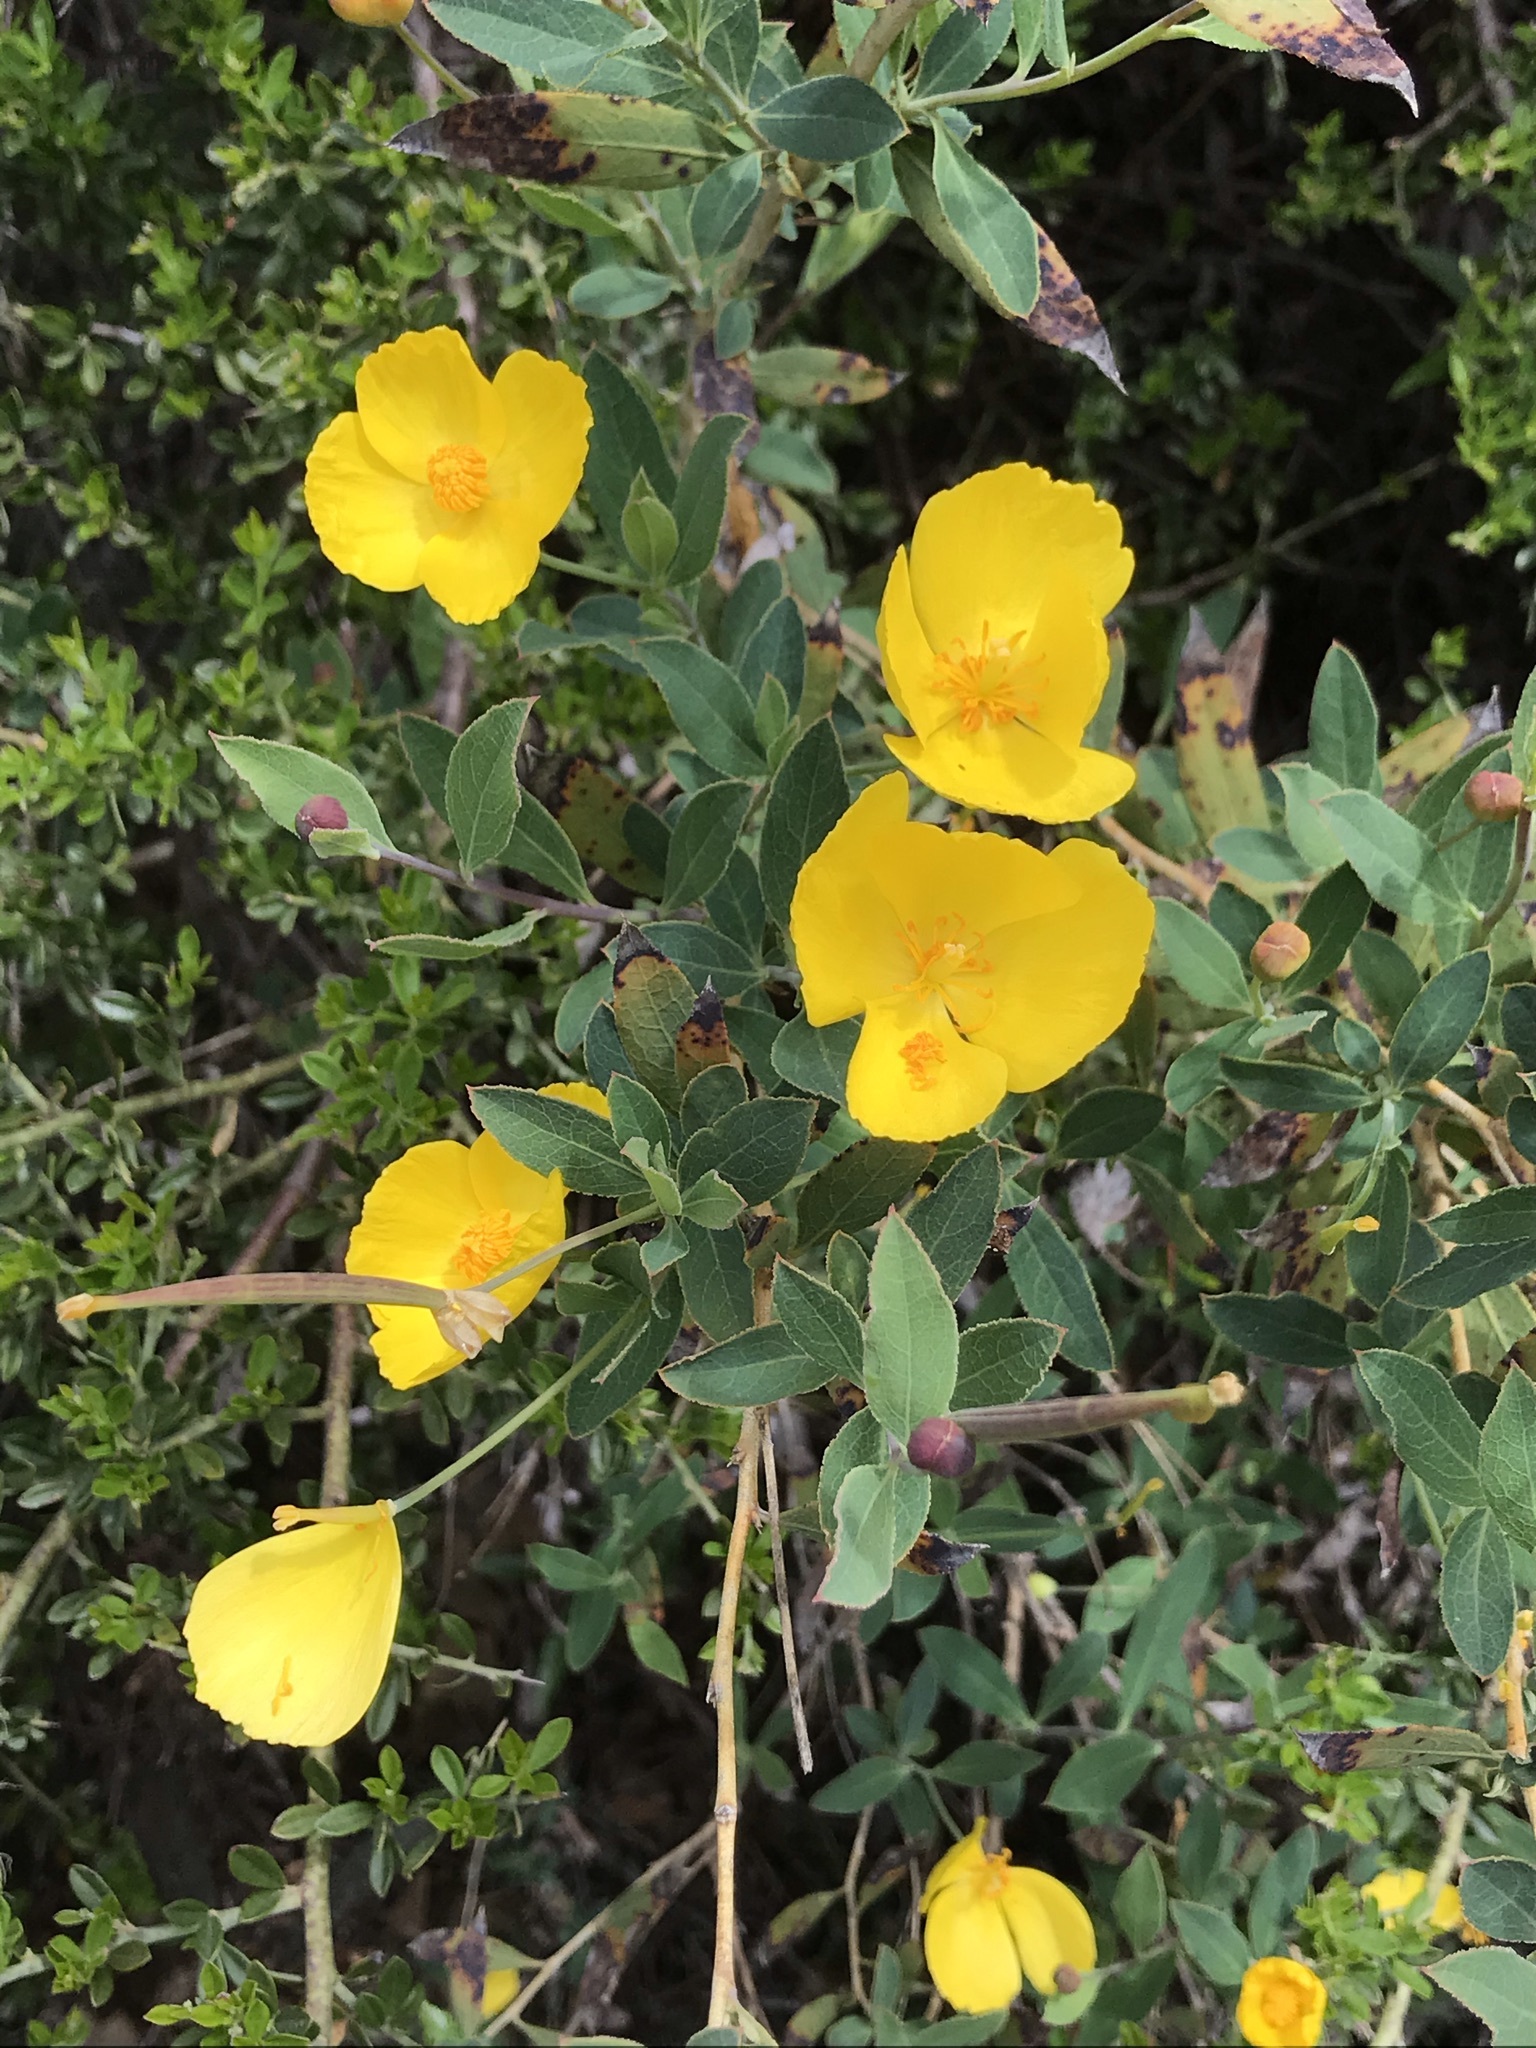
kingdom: Plantae
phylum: Tracheophyta
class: Magnoliopsida
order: Ranunculales
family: Papaveraceae
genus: Dendromecon
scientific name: Dendromecon rigida
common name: Tree poppy
